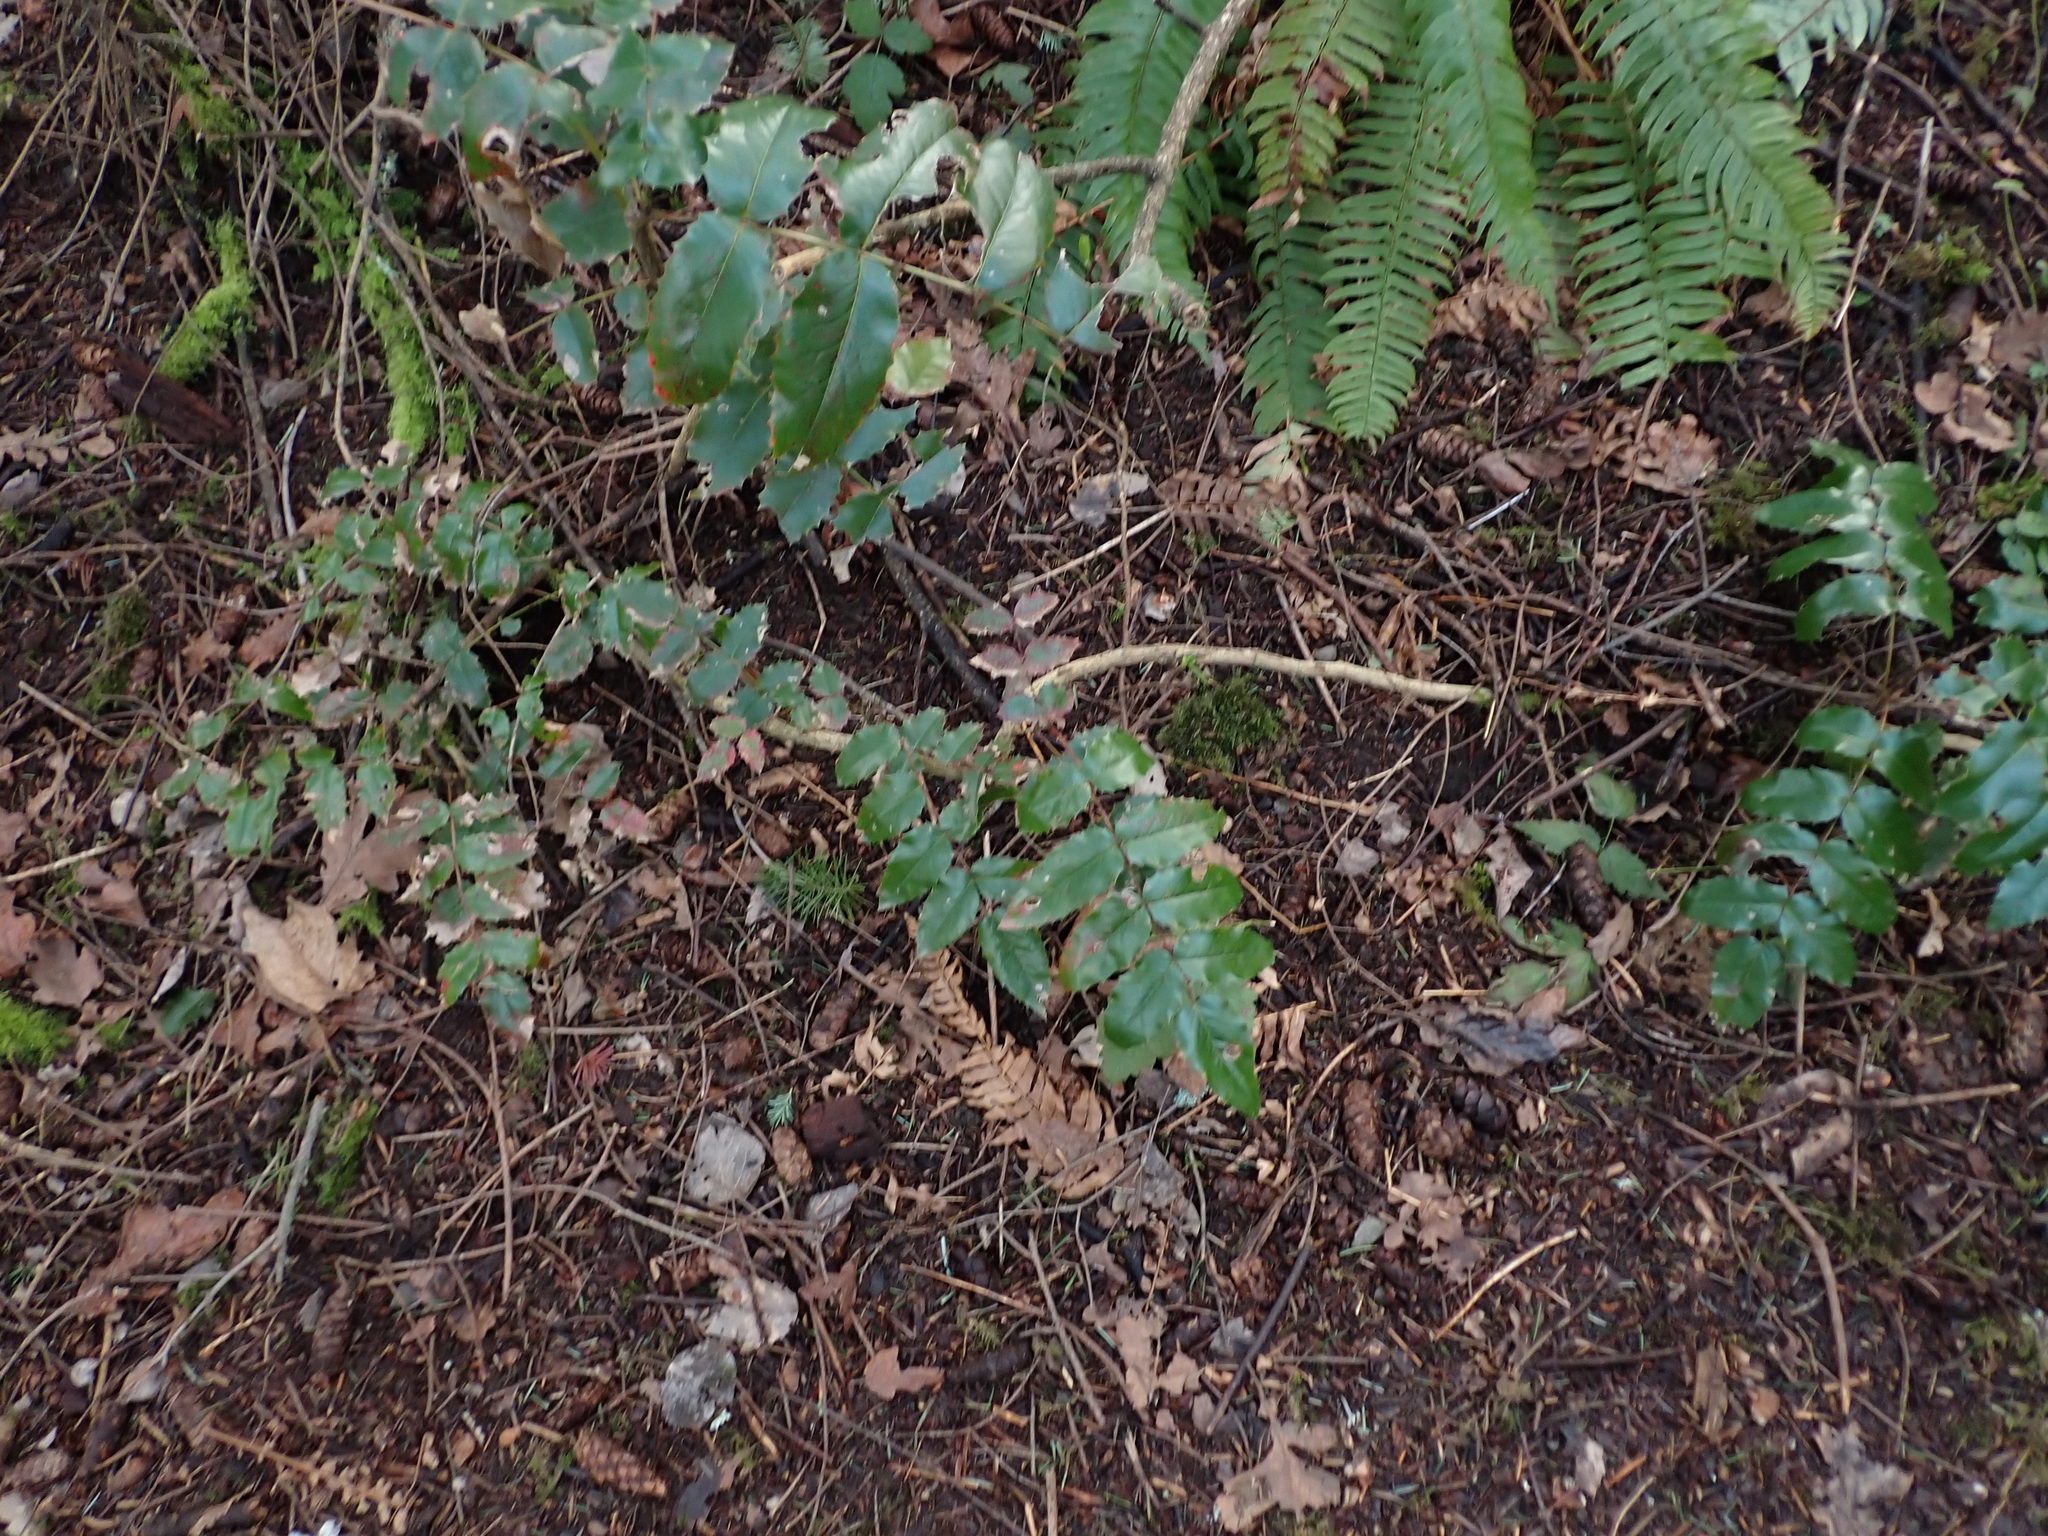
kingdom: Plantae
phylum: Tracheophyta
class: Magnoliopsida
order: Ranunculales
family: Berberidaceae
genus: Mahonia
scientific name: Mahonia aquifolium
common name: Oregon-grape
